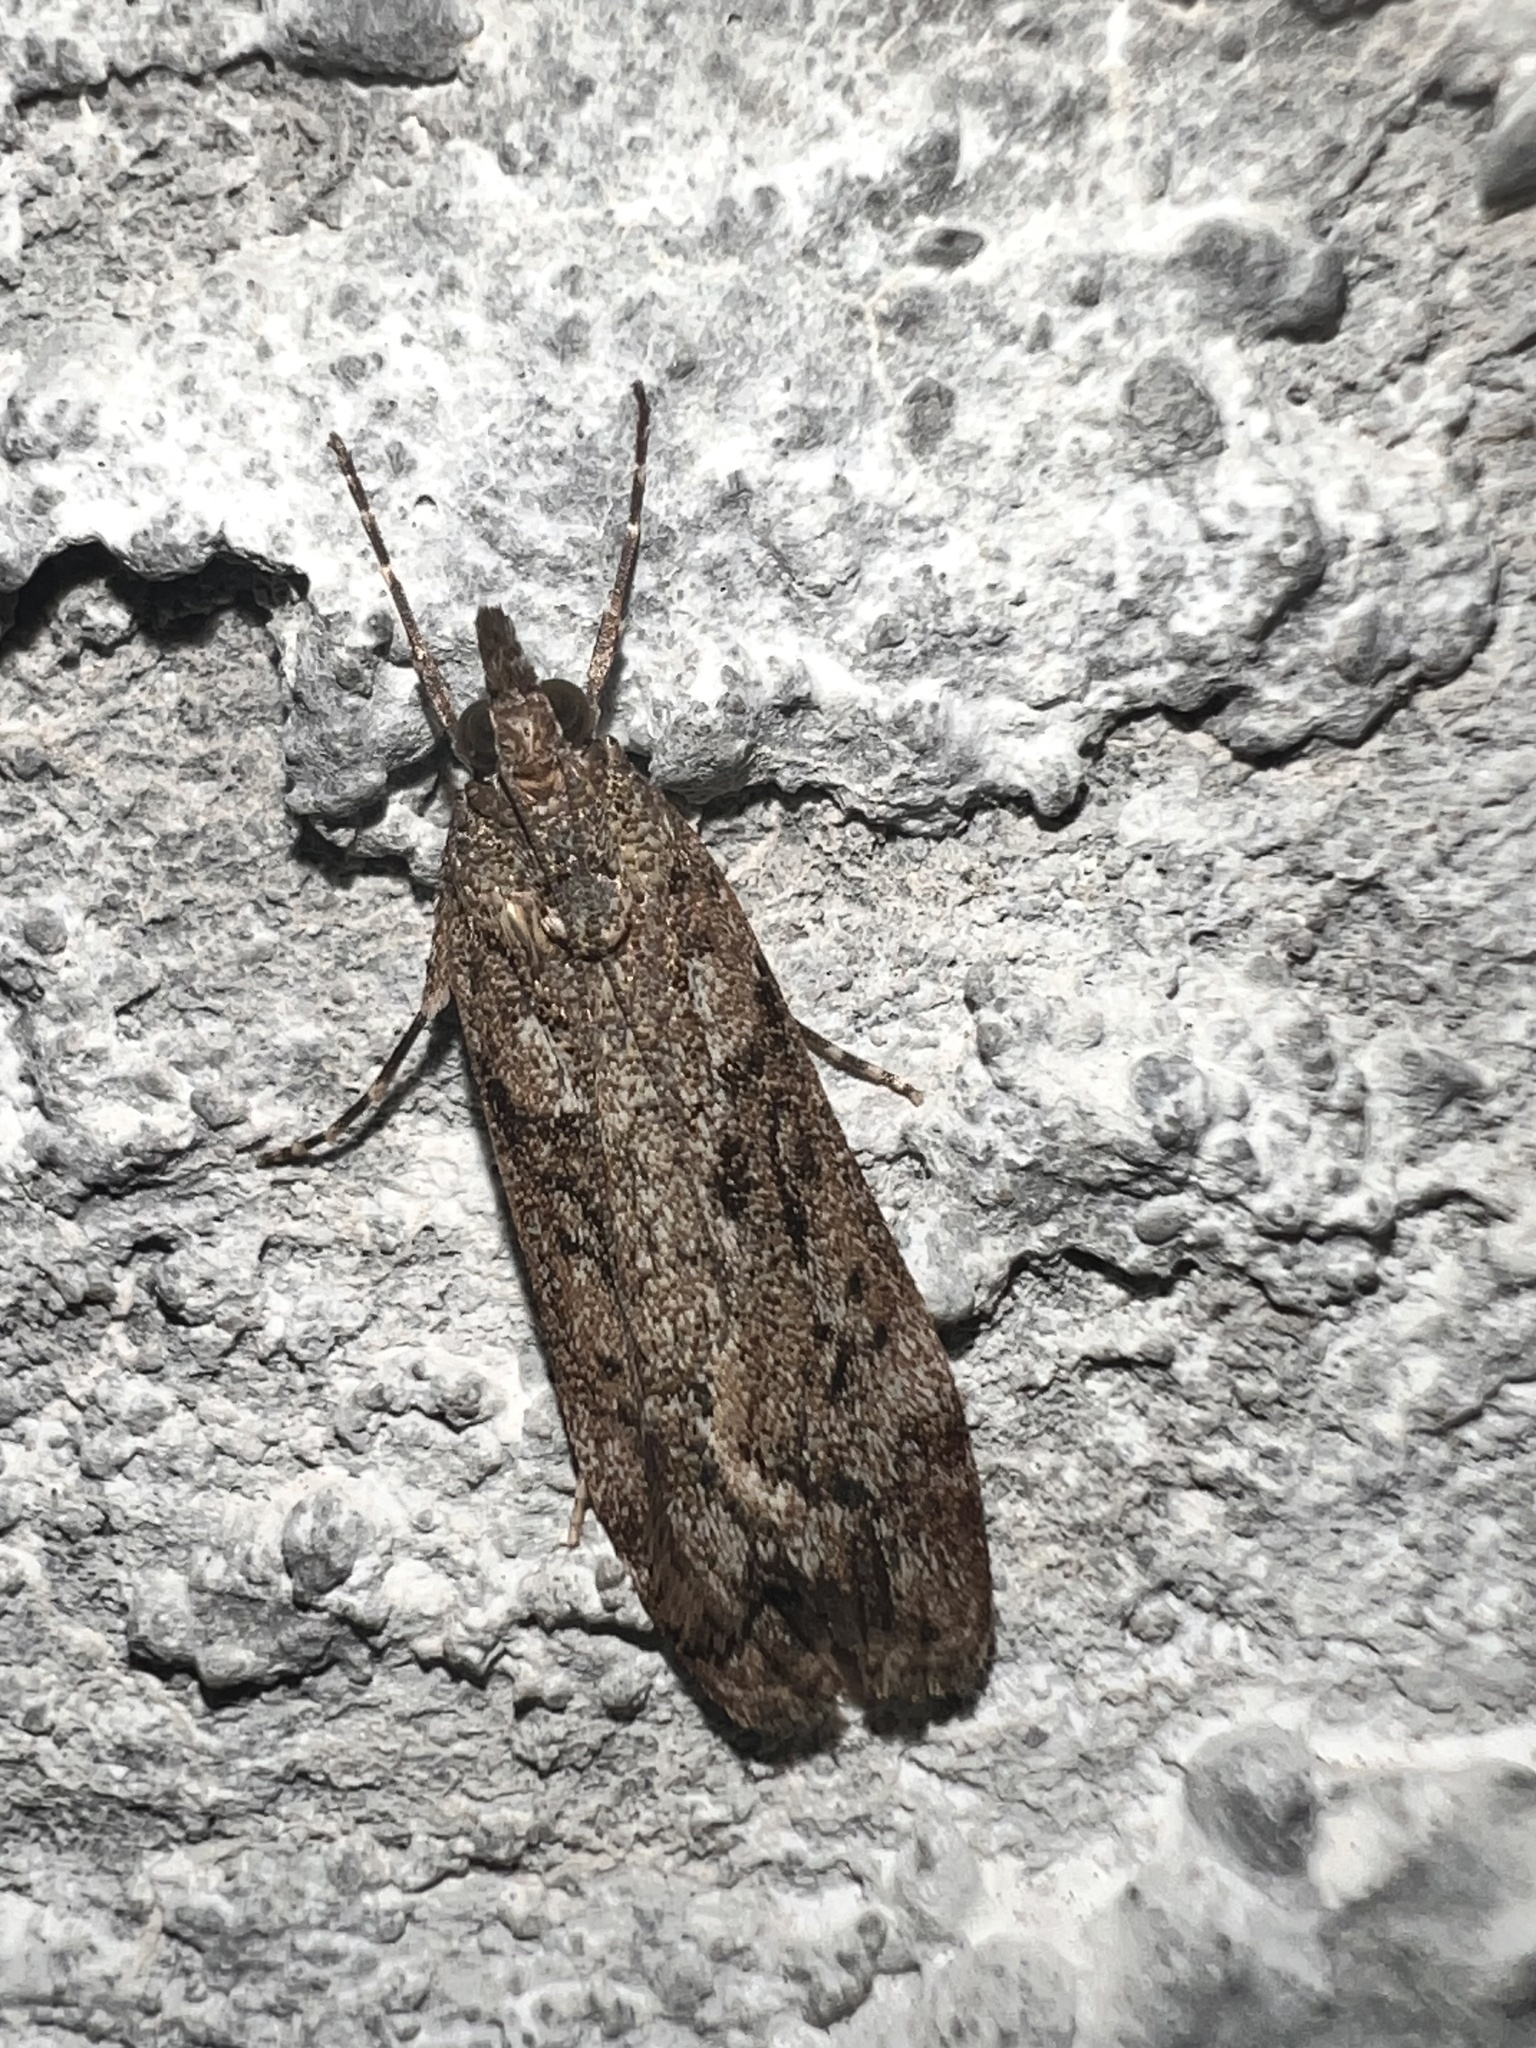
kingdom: Animalia
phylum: Arthropoda
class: Insecta
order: Lepidoptera
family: Crambidae
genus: Eudonia
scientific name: Eudonia submarginalis
